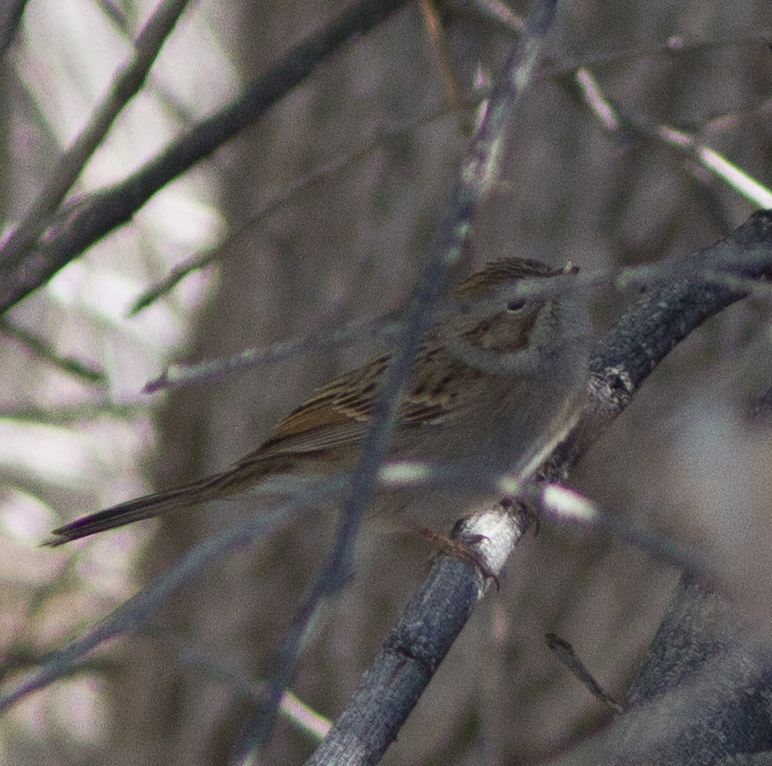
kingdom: Animalia
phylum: Chordata
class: Aves
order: Passeriformes
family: Passerellidae
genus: Spizella
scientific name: Spizella breweri
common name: Brewer's sparrow
